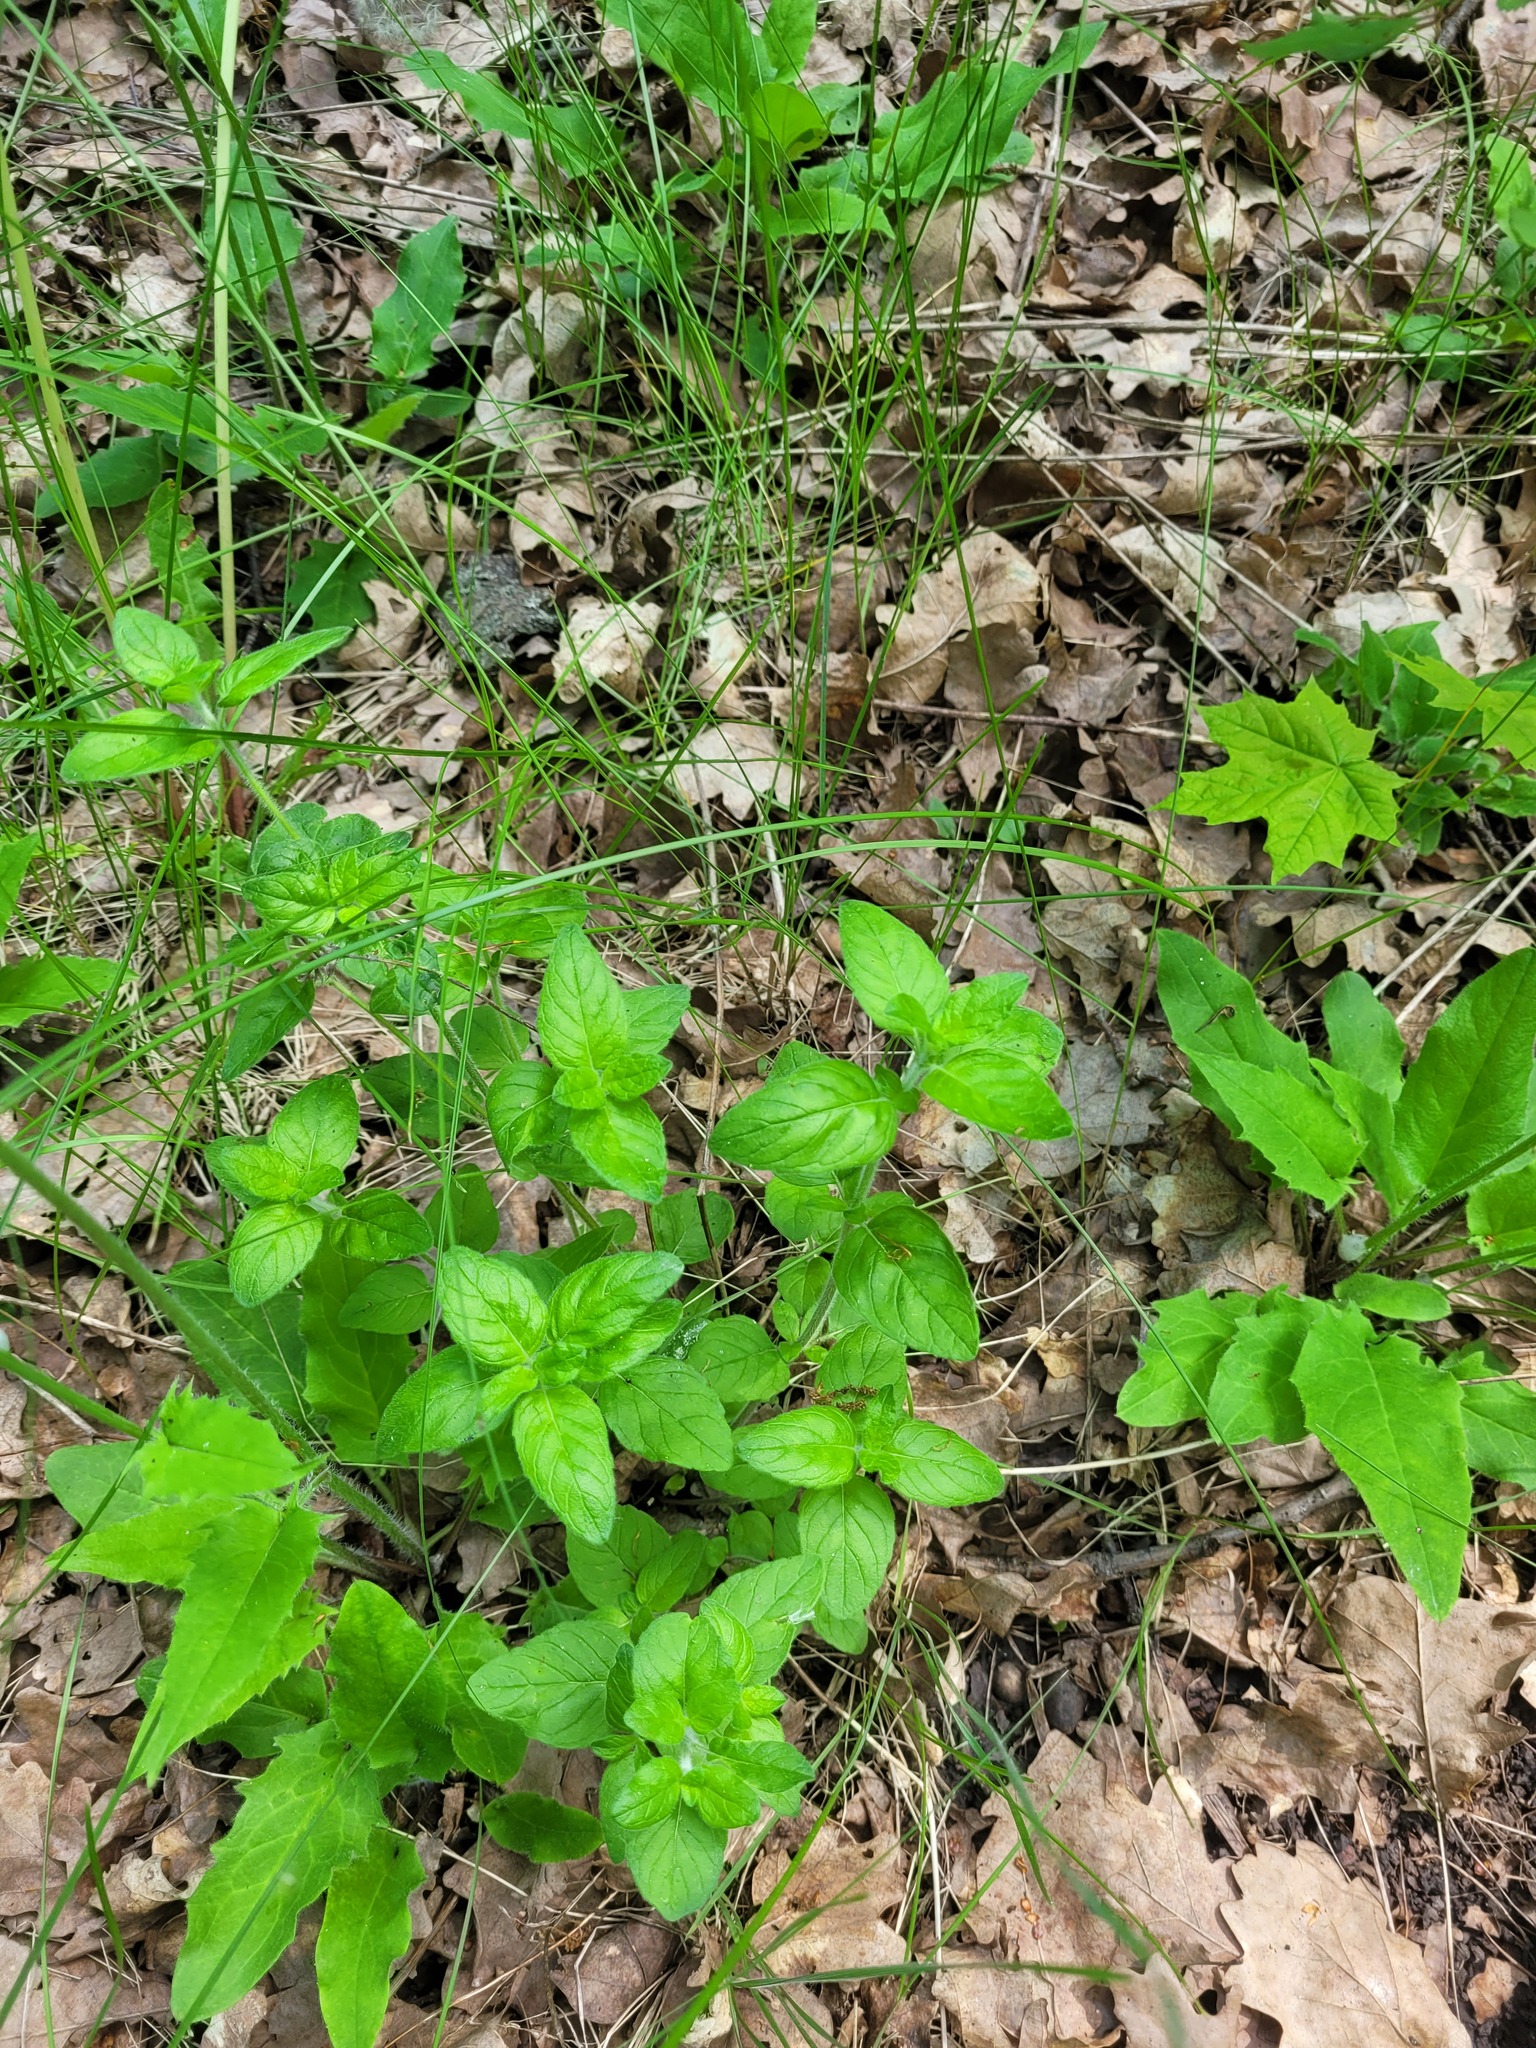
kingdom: Plantae
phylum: Tracheophyta
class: Magnoliopsida
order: Lamiales
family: Lamiaceae
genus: Clinopodium
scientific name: Clinopodium vulgare
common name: Wild basil
